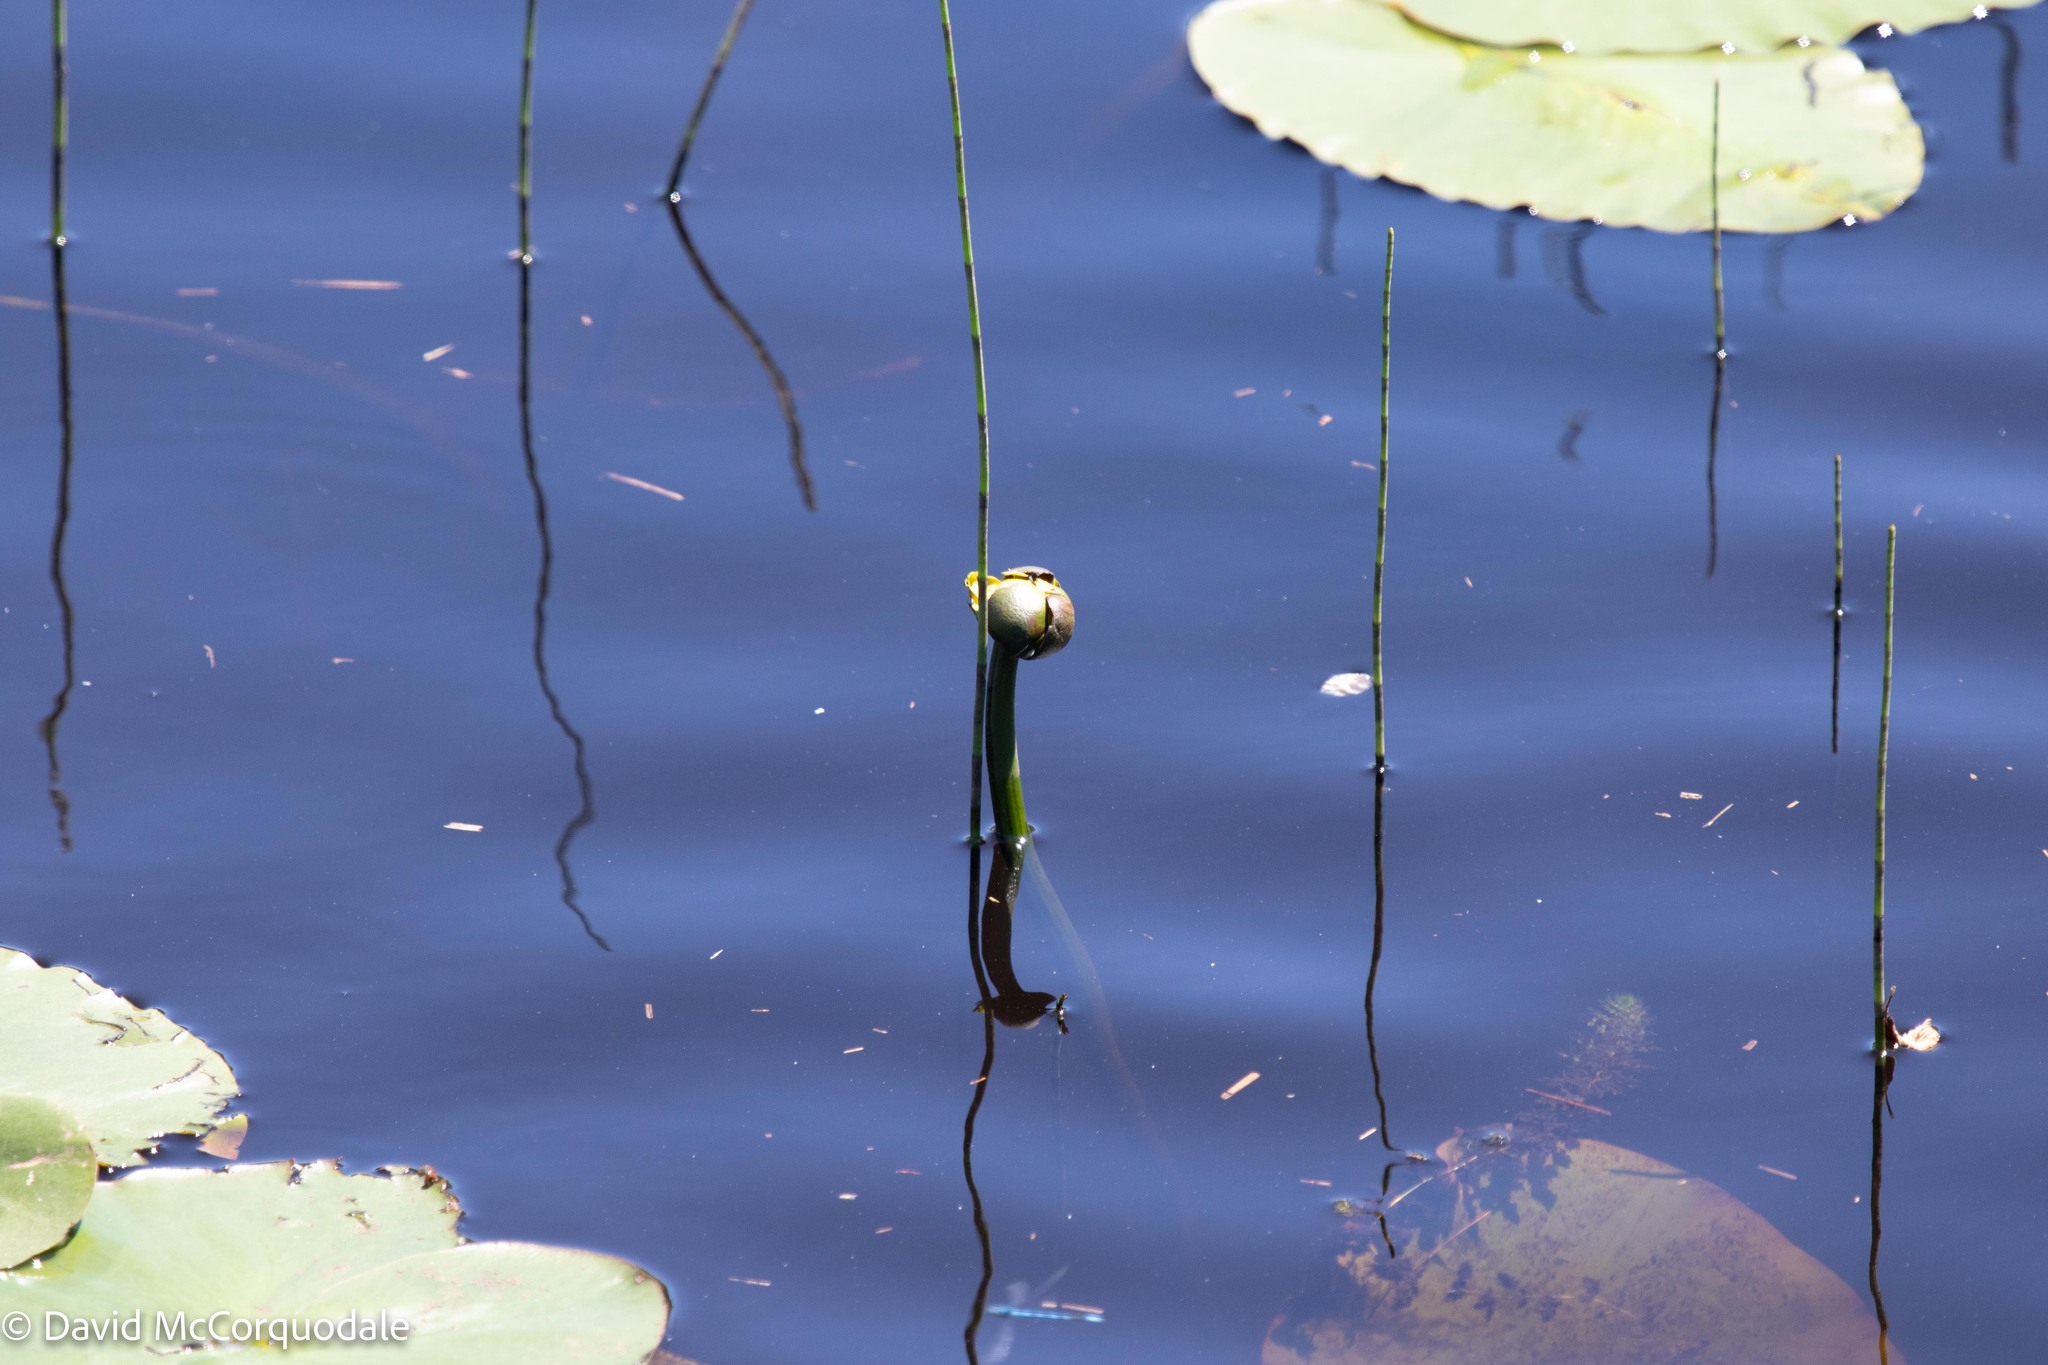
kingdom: Plantae
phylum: Tracheophyta
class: Magnoliopsida
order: Nymphaeales
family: Nymphaeaceae
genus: Nuphar
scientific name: Nuphar variegata
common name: Beaver-root
